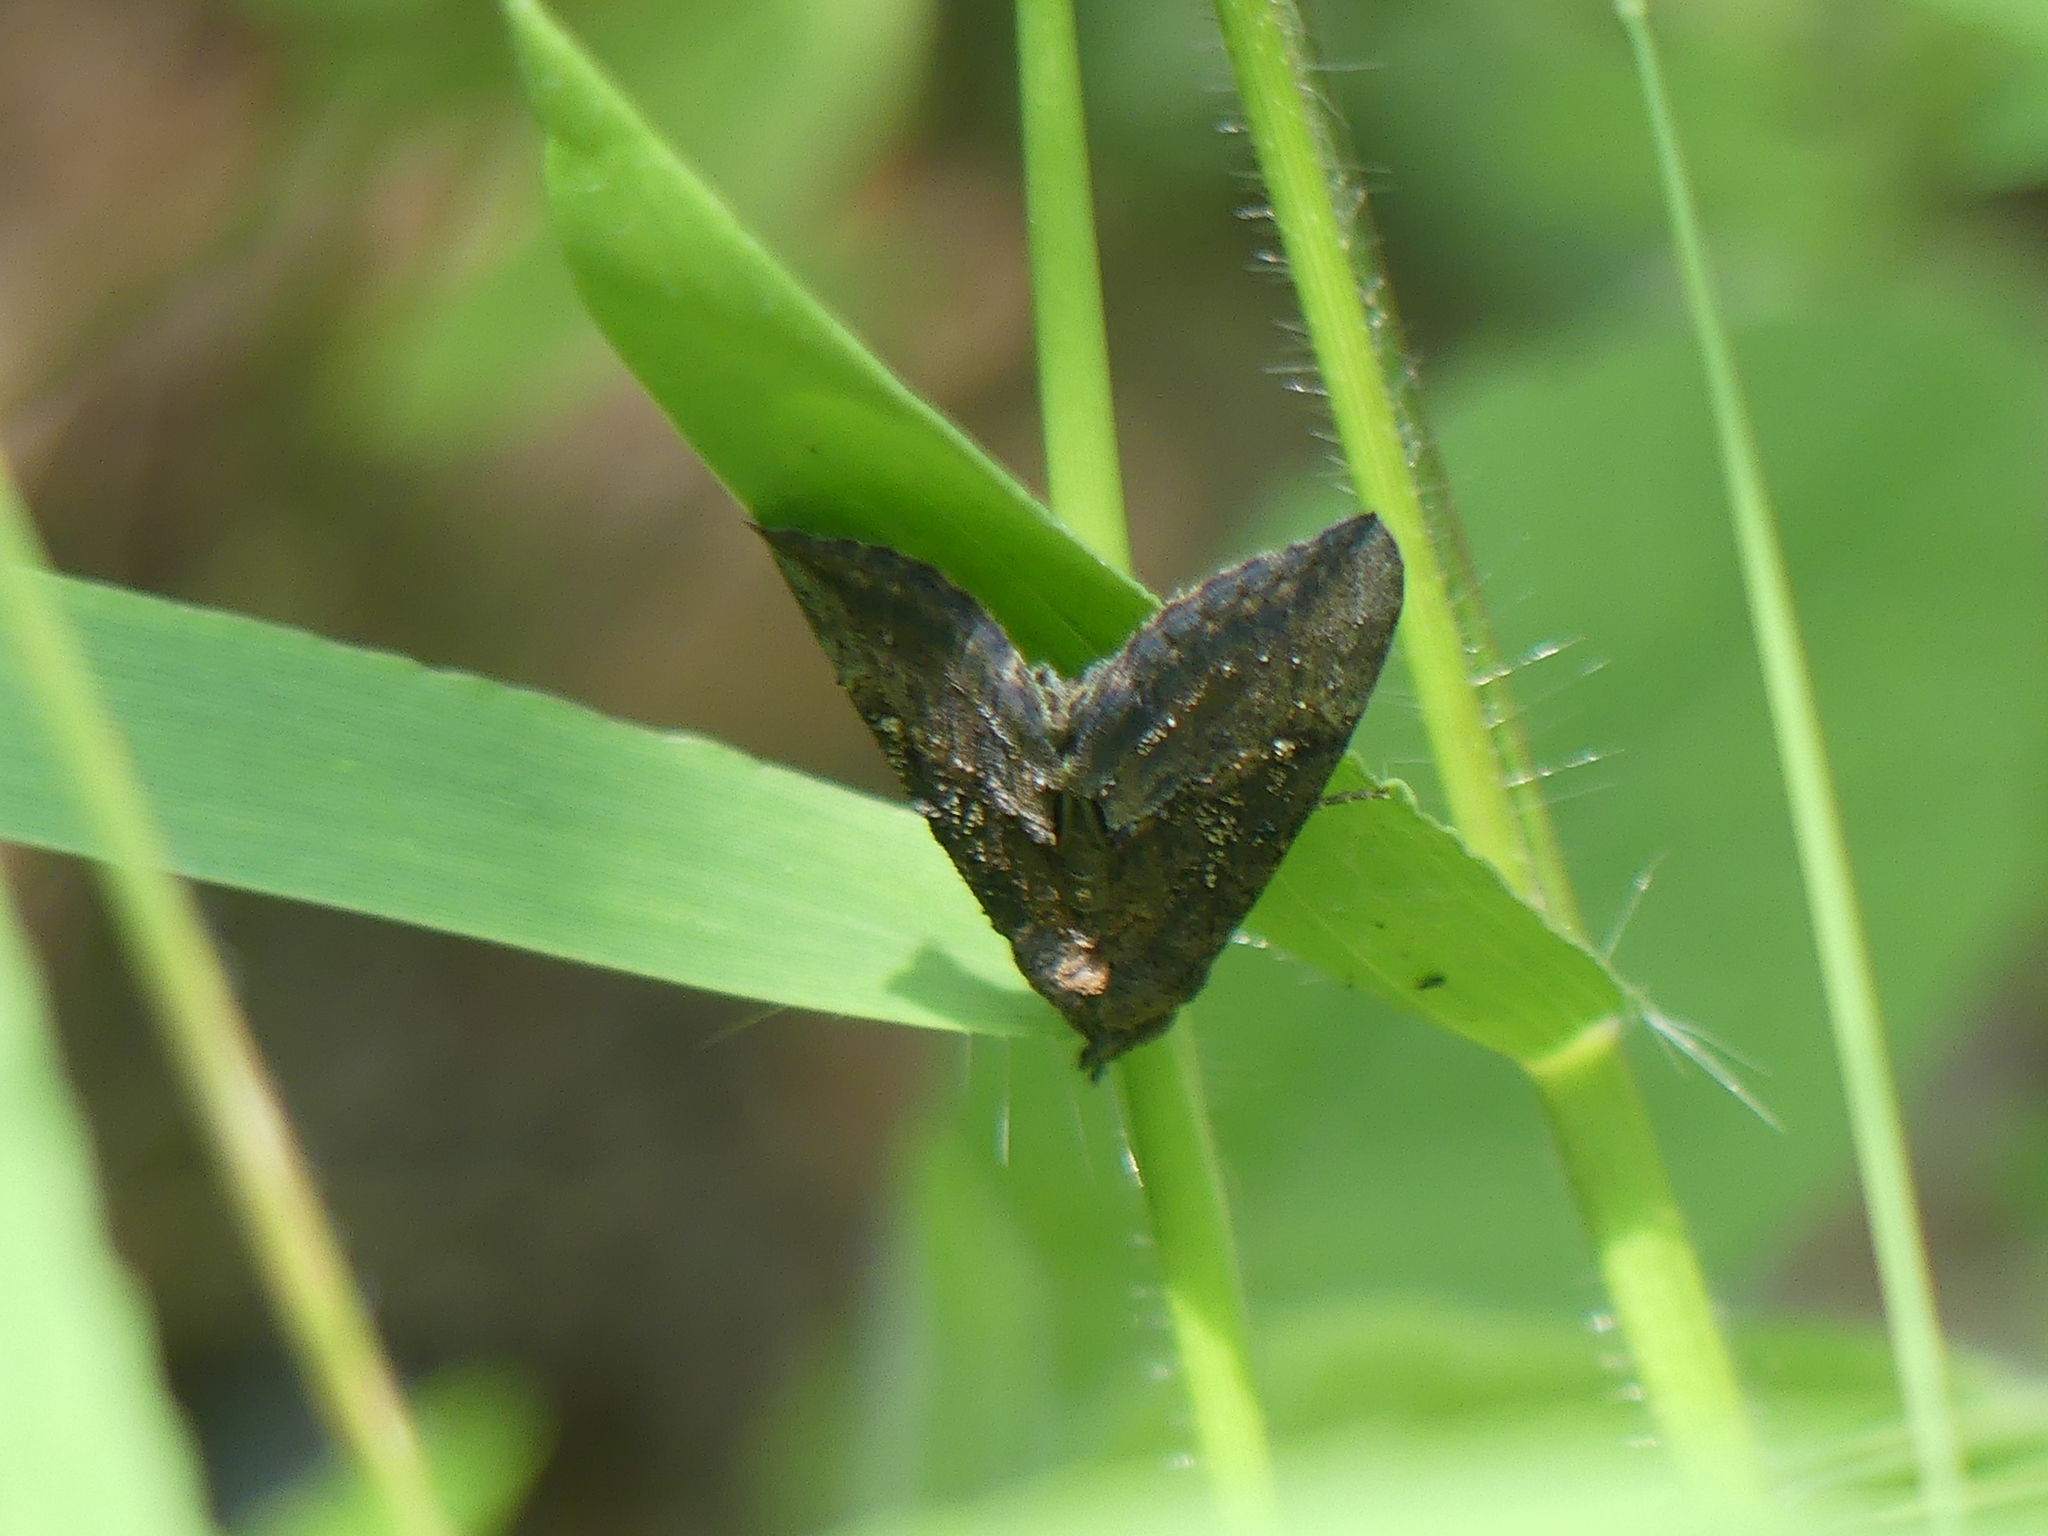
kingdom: Animalia
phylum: Arthropoda
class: Insecta
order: Lepidoptera
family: Erebidae
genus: Hypena
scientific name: Hypena scabra
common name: Green cloverworm
